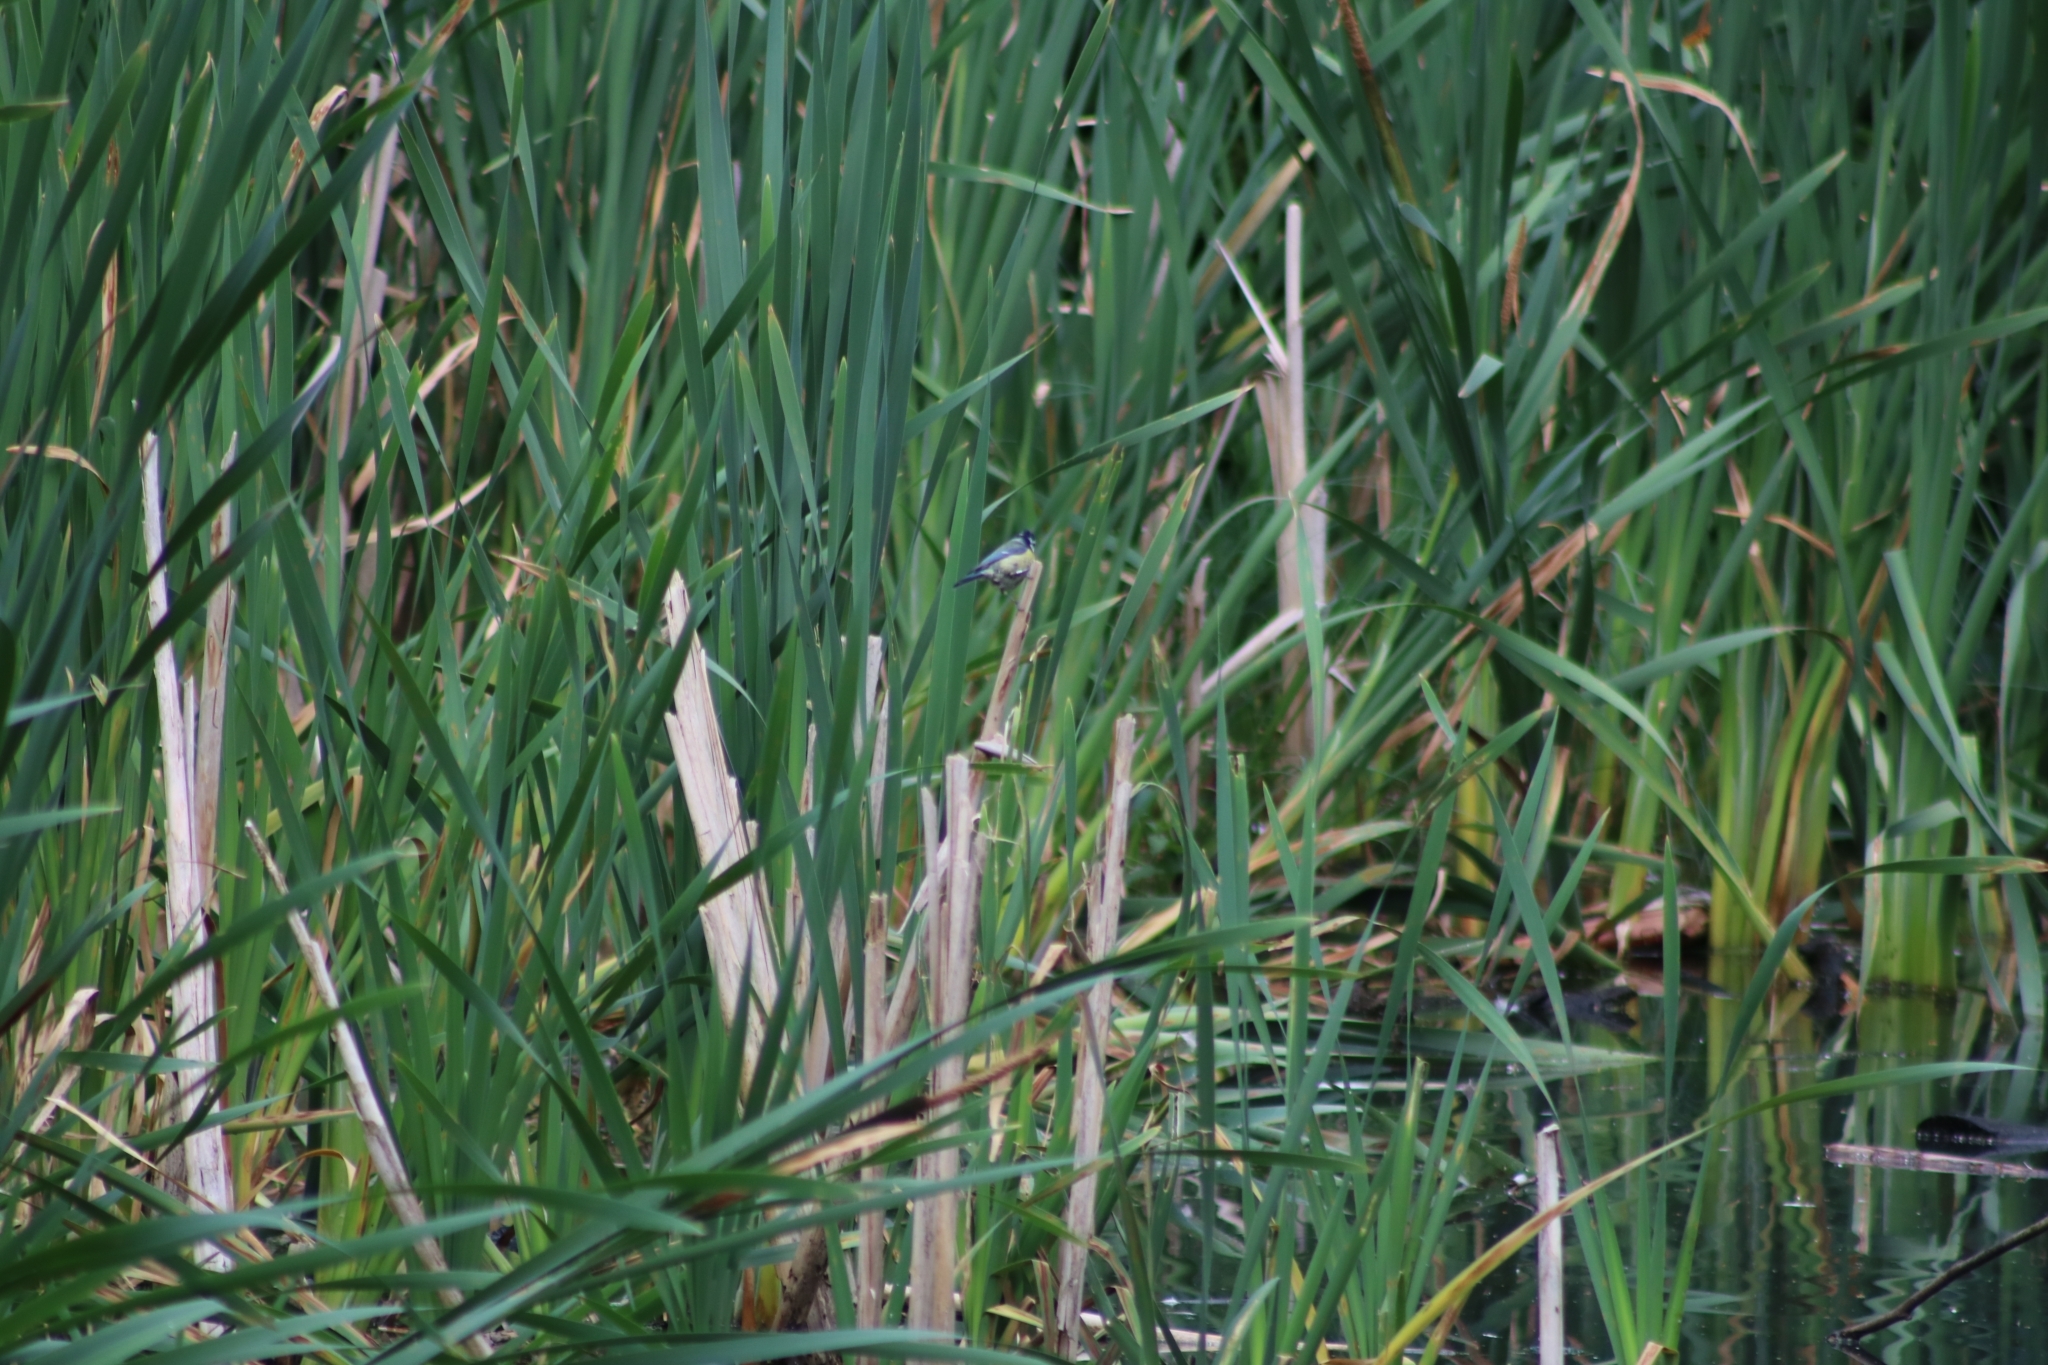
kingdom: Animalia
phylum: Chordata
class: Aves
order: Passeriformes
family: Paridae
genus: Cyanistes
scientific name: Cyanistes caeruleus
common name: Eurasian blue tit
